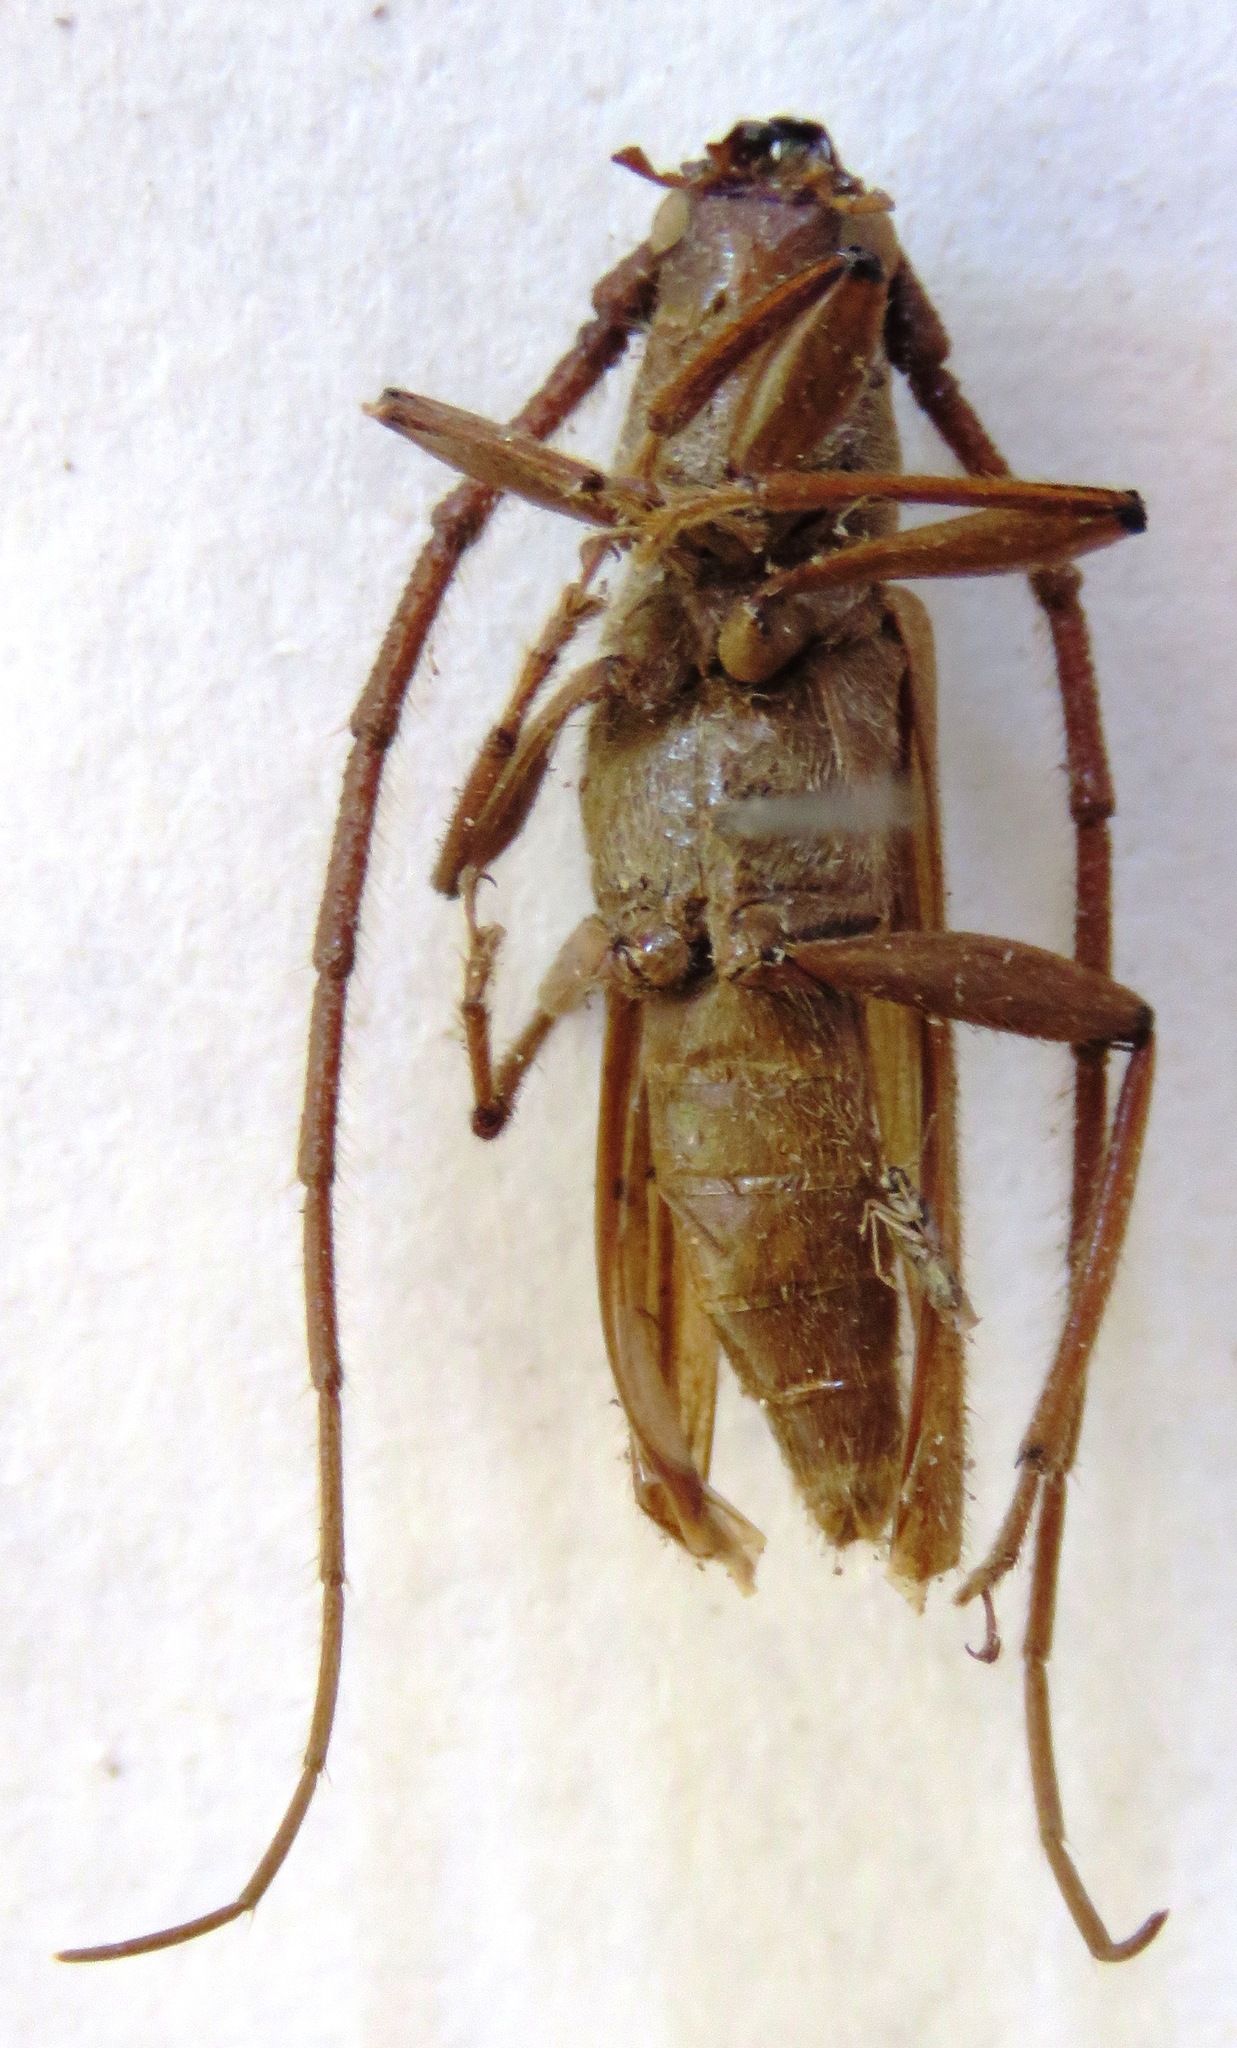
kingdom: Animalia
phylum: Arthropoda
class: Insecta
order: Coleoptera
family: Cerambycidae
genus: Malacopterus
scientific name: Malacopterus tenellus
